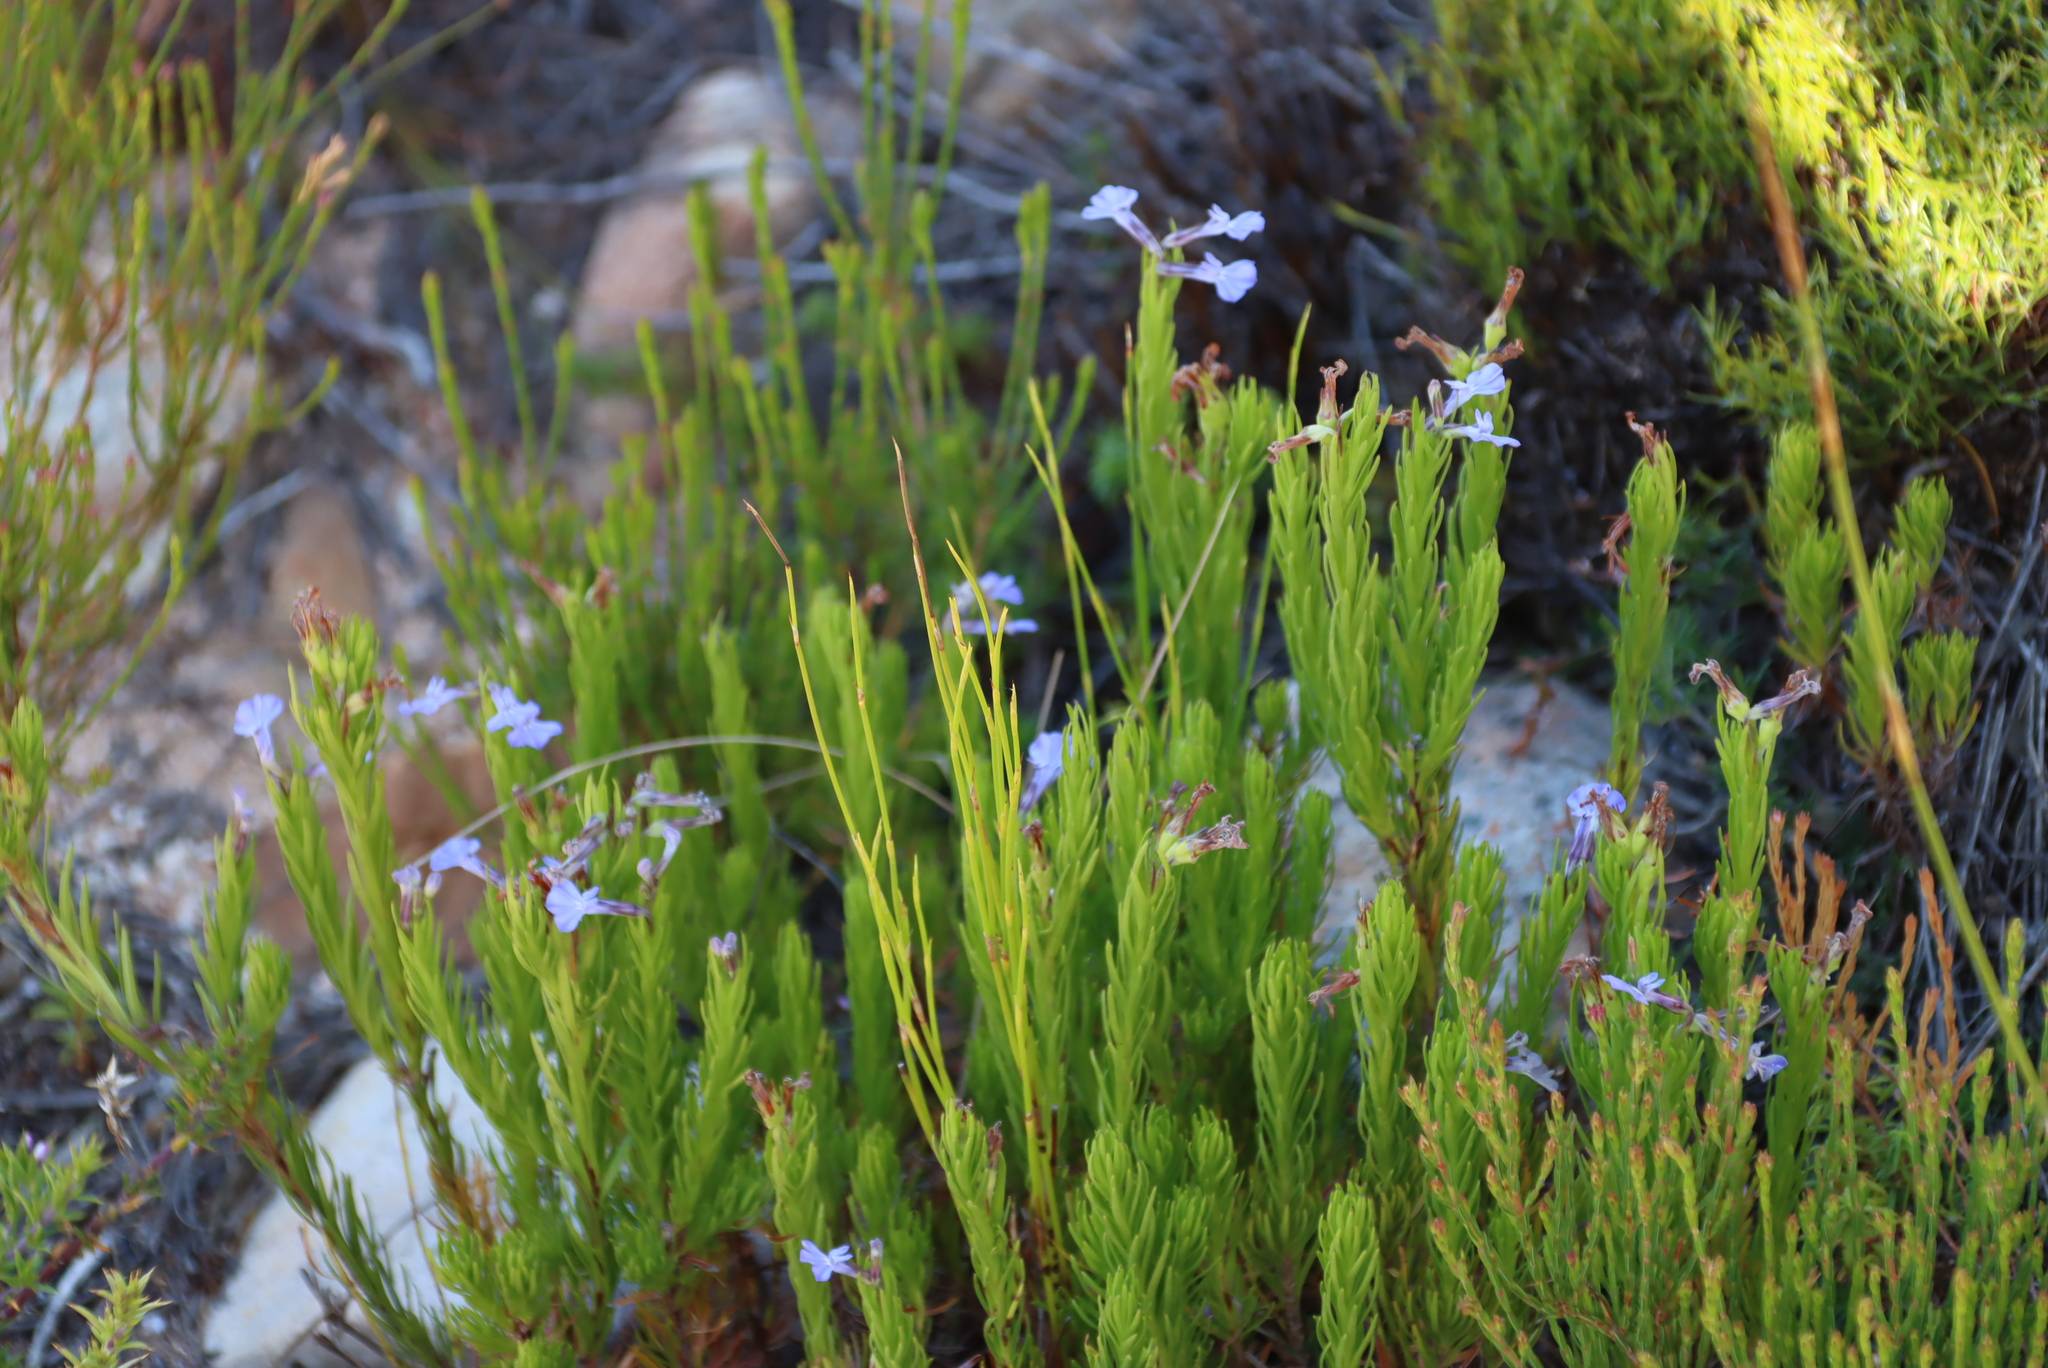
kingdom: Plantae
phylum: Tracheophyta
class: Magnoliopsida
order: Asterales
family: Campanulaceae
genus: Lobelia
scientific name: Lobelia pinifolia
